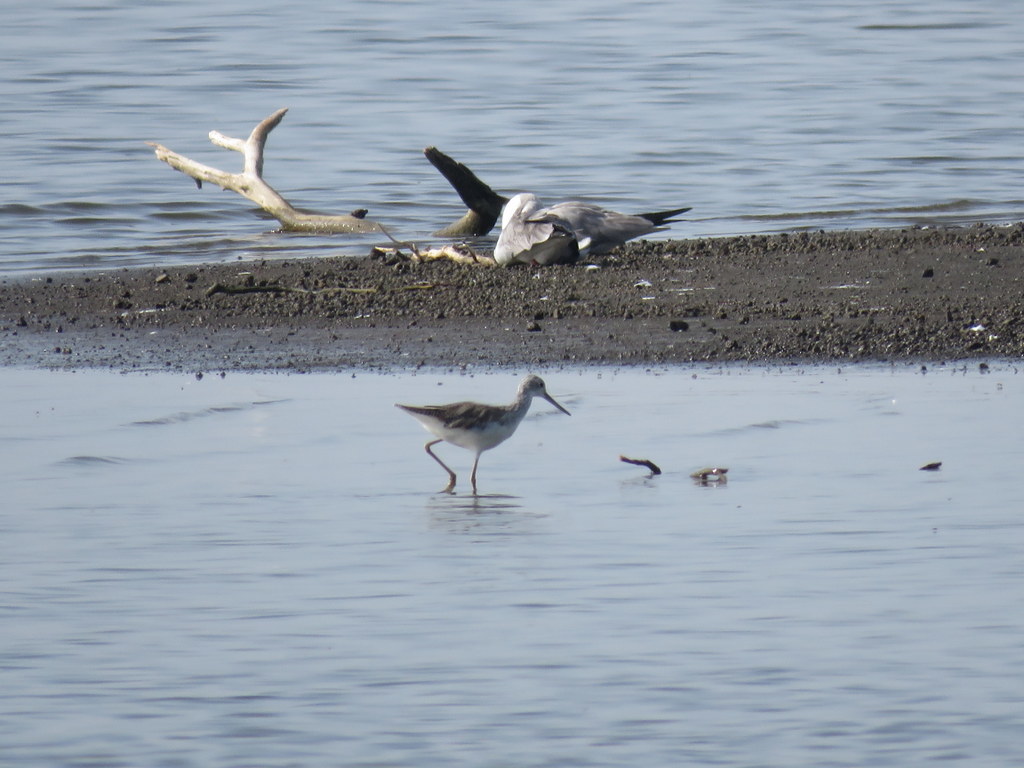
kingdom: Animalia
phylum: Chordata
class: Aves
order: Charadriiformes
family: Scolopacidae
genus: Tringa
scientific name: Tringa nebularia
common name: Common greenshank
